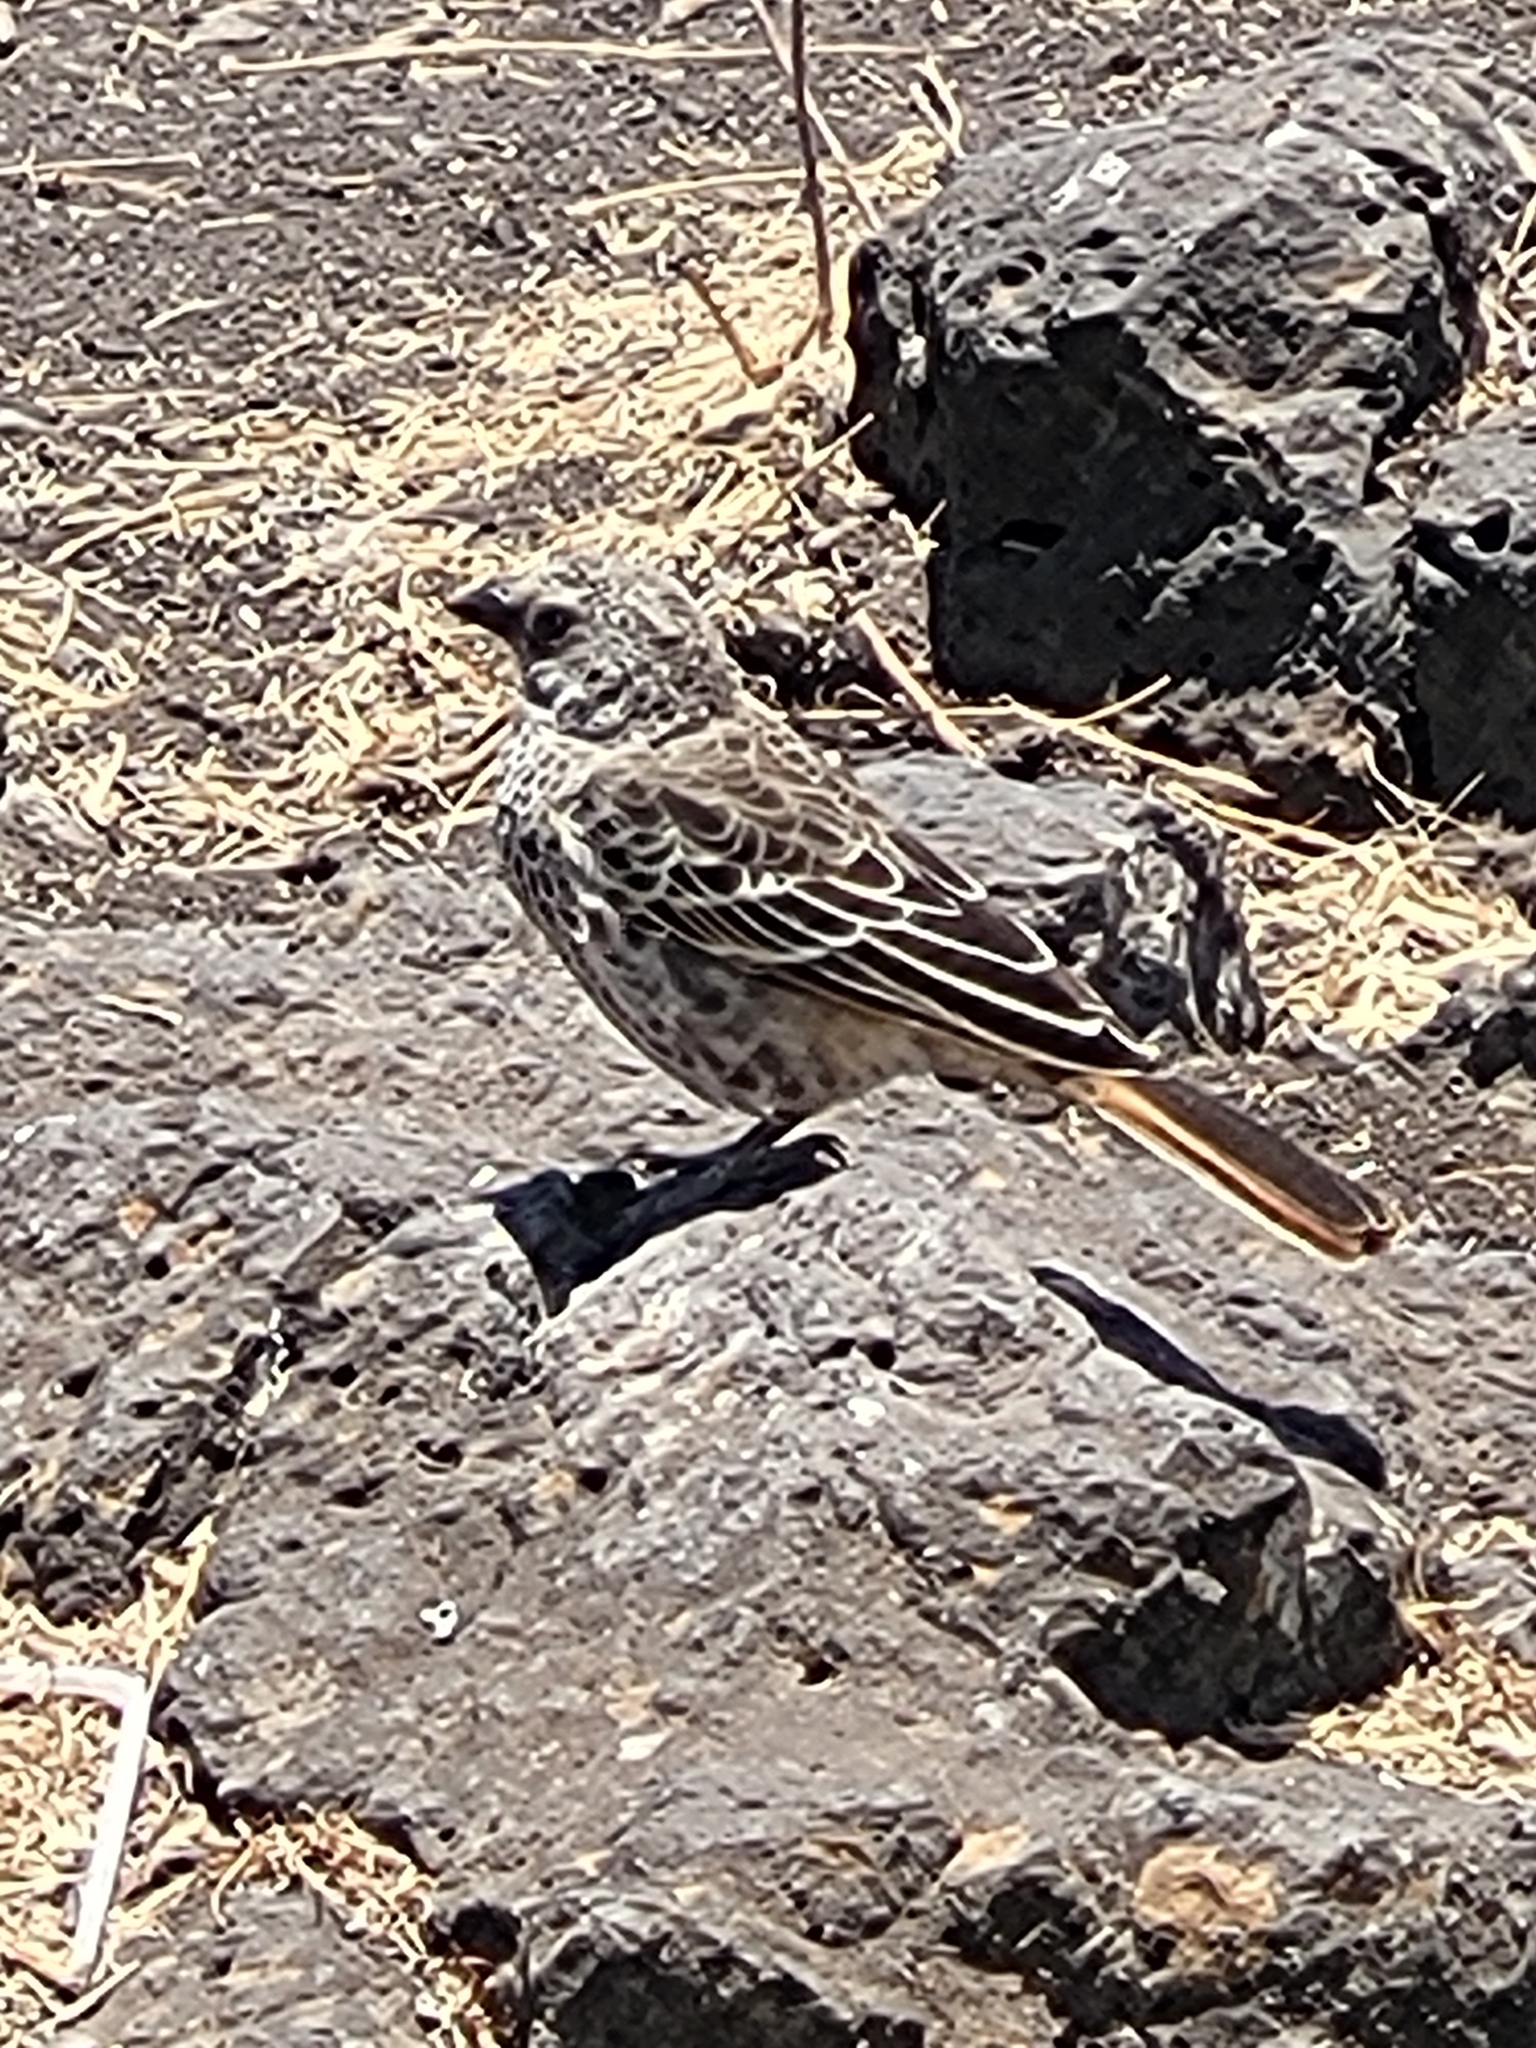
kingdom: Animalia
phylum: Chordata
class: Aves
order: Passeriformes
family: Passeridae
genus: Histurgops
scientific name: Histurgops ruficauda
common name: Rufous-tailed weaver
